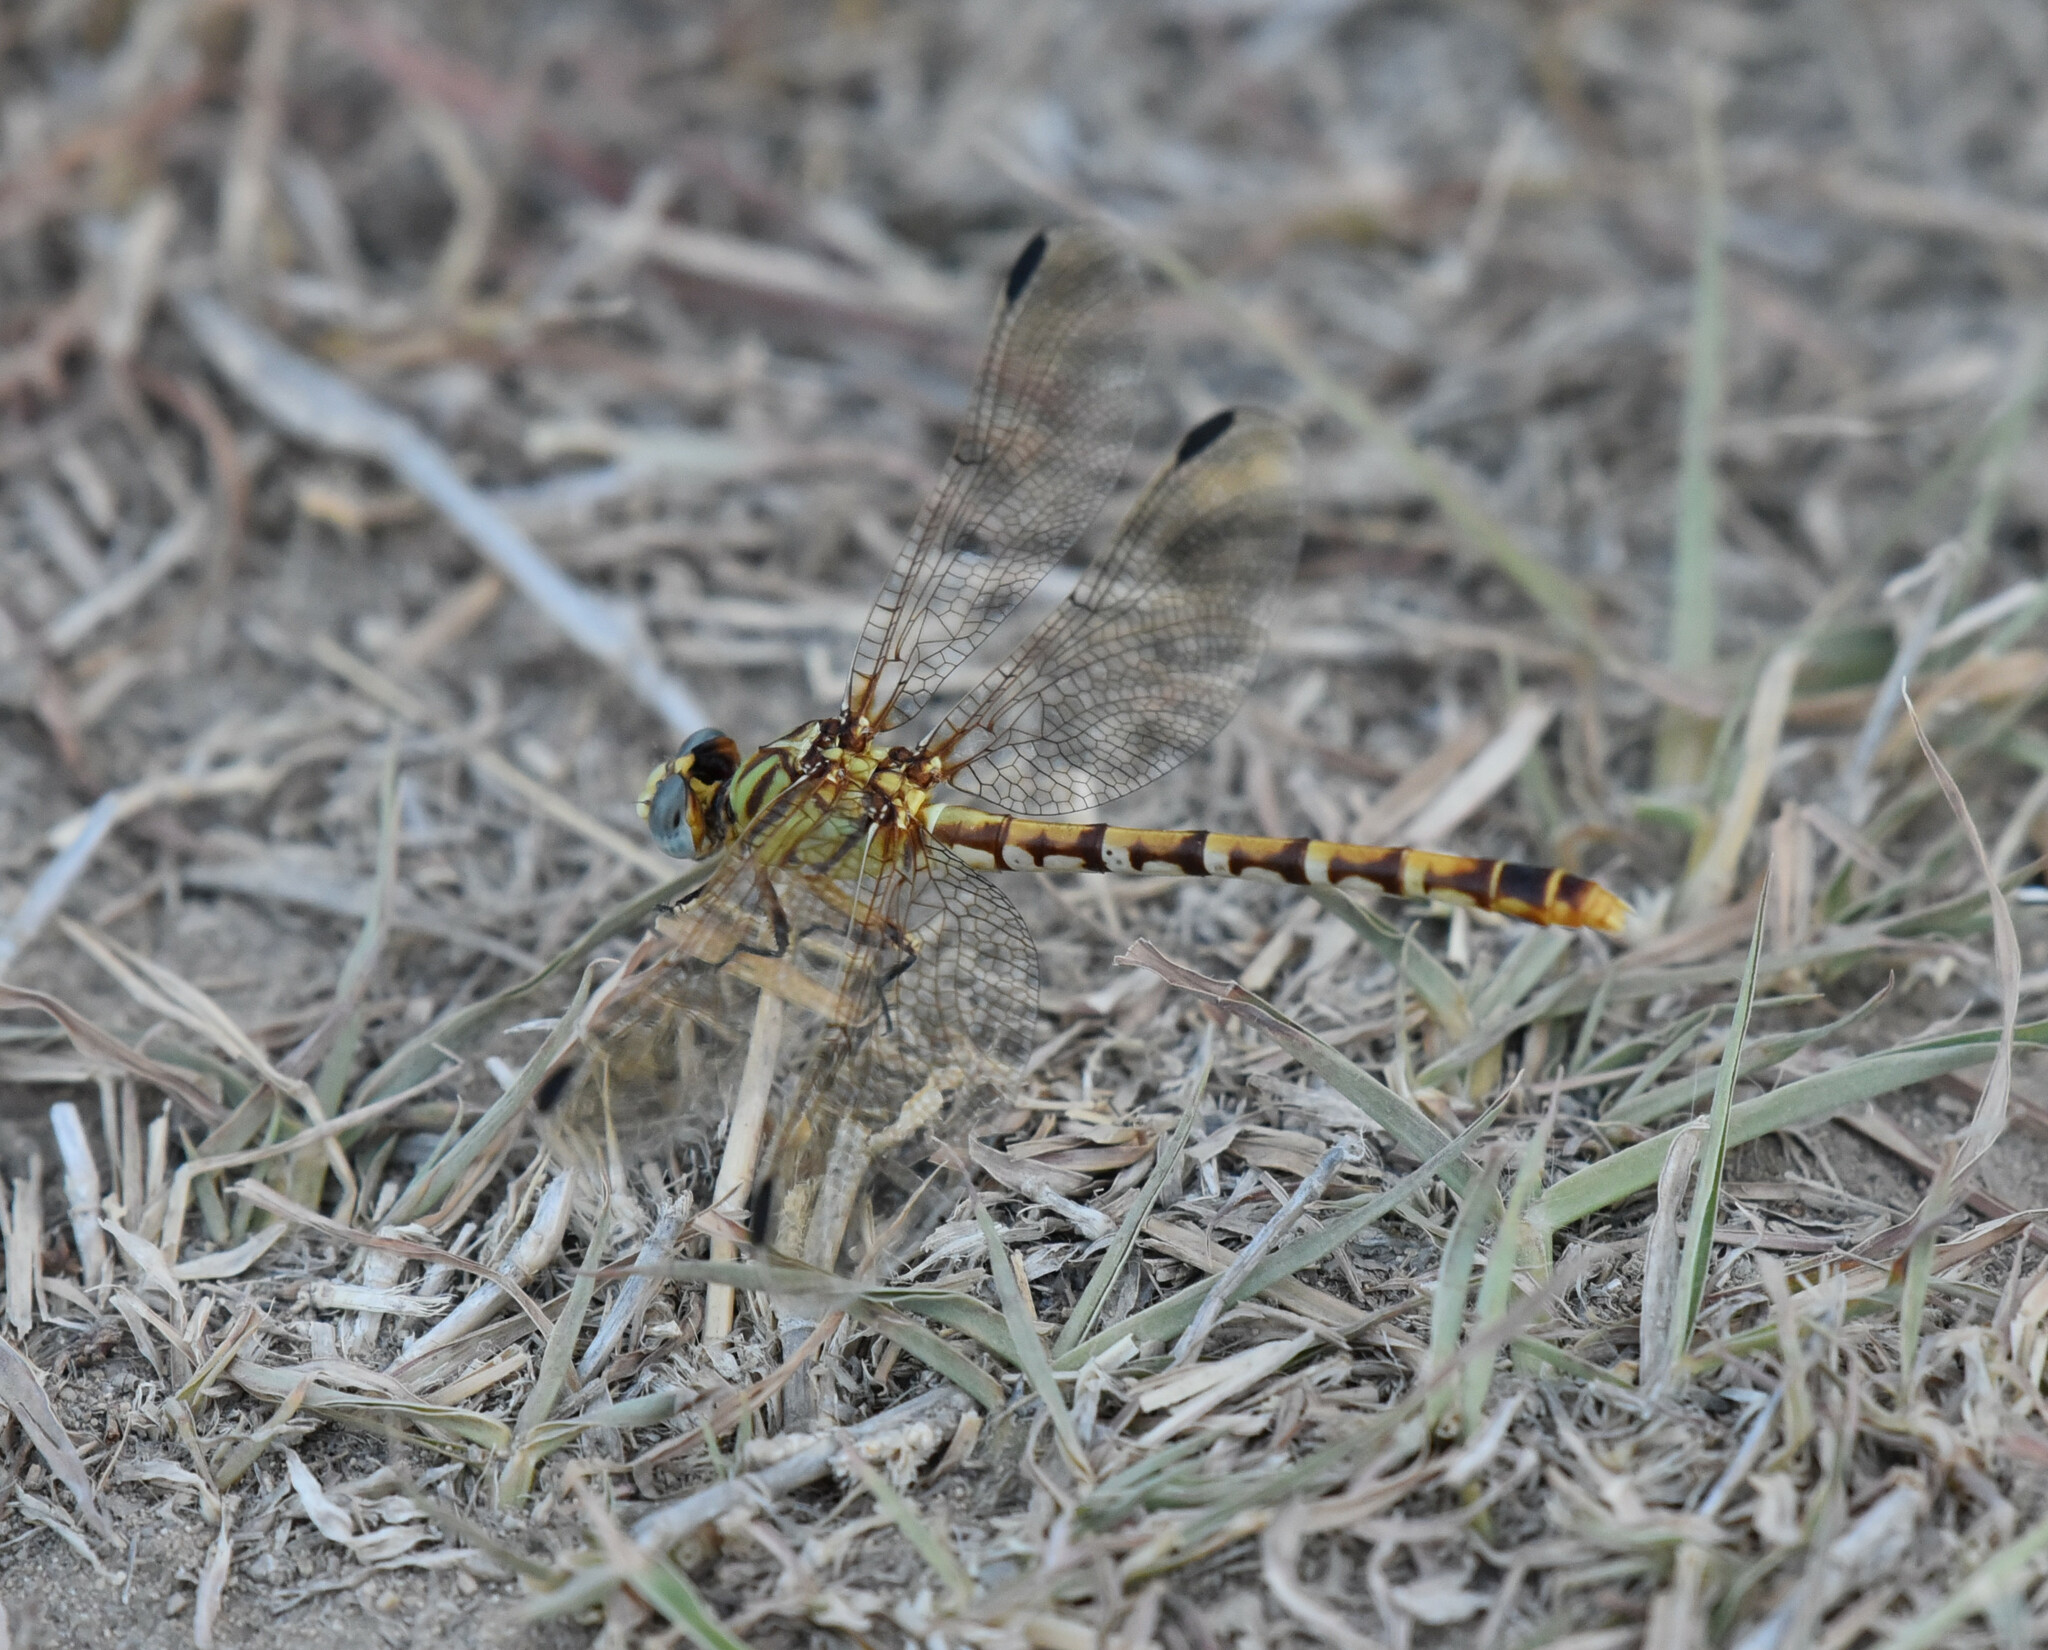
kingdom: Animalia
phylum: Arthropoda
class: Insecta
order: Odonata
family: Gomphidae
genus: Erpetogomphus
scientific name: Erpetogomphus designatus
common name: Eastern ringtail
